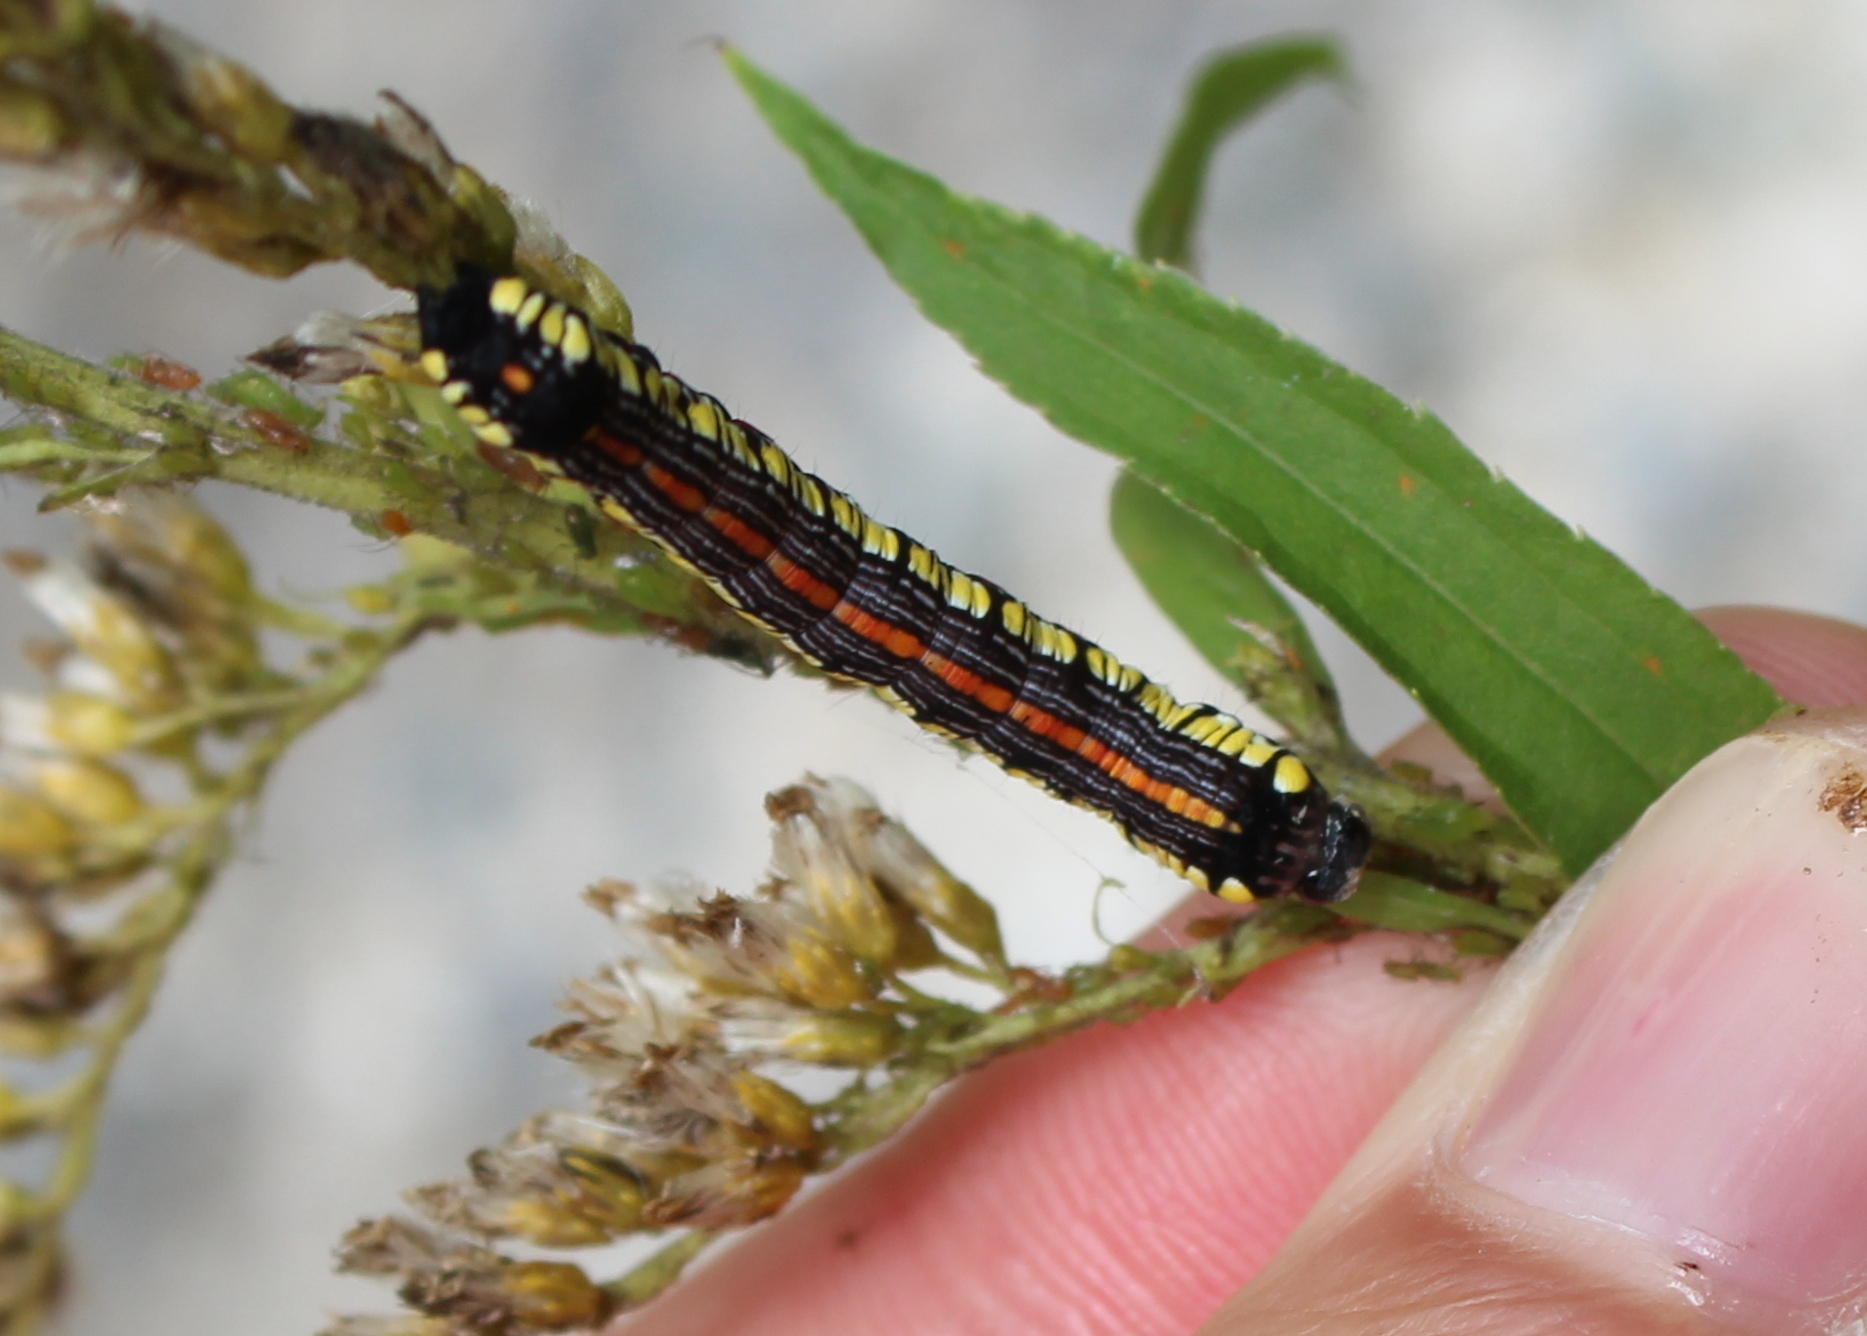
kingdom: Animalia
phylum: Arthropoda
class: Insecta
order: Lepidoptera
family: Noctuidae
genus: Cucullia
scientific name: Cucullia convexipennis
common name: Brown-hooded owlet
